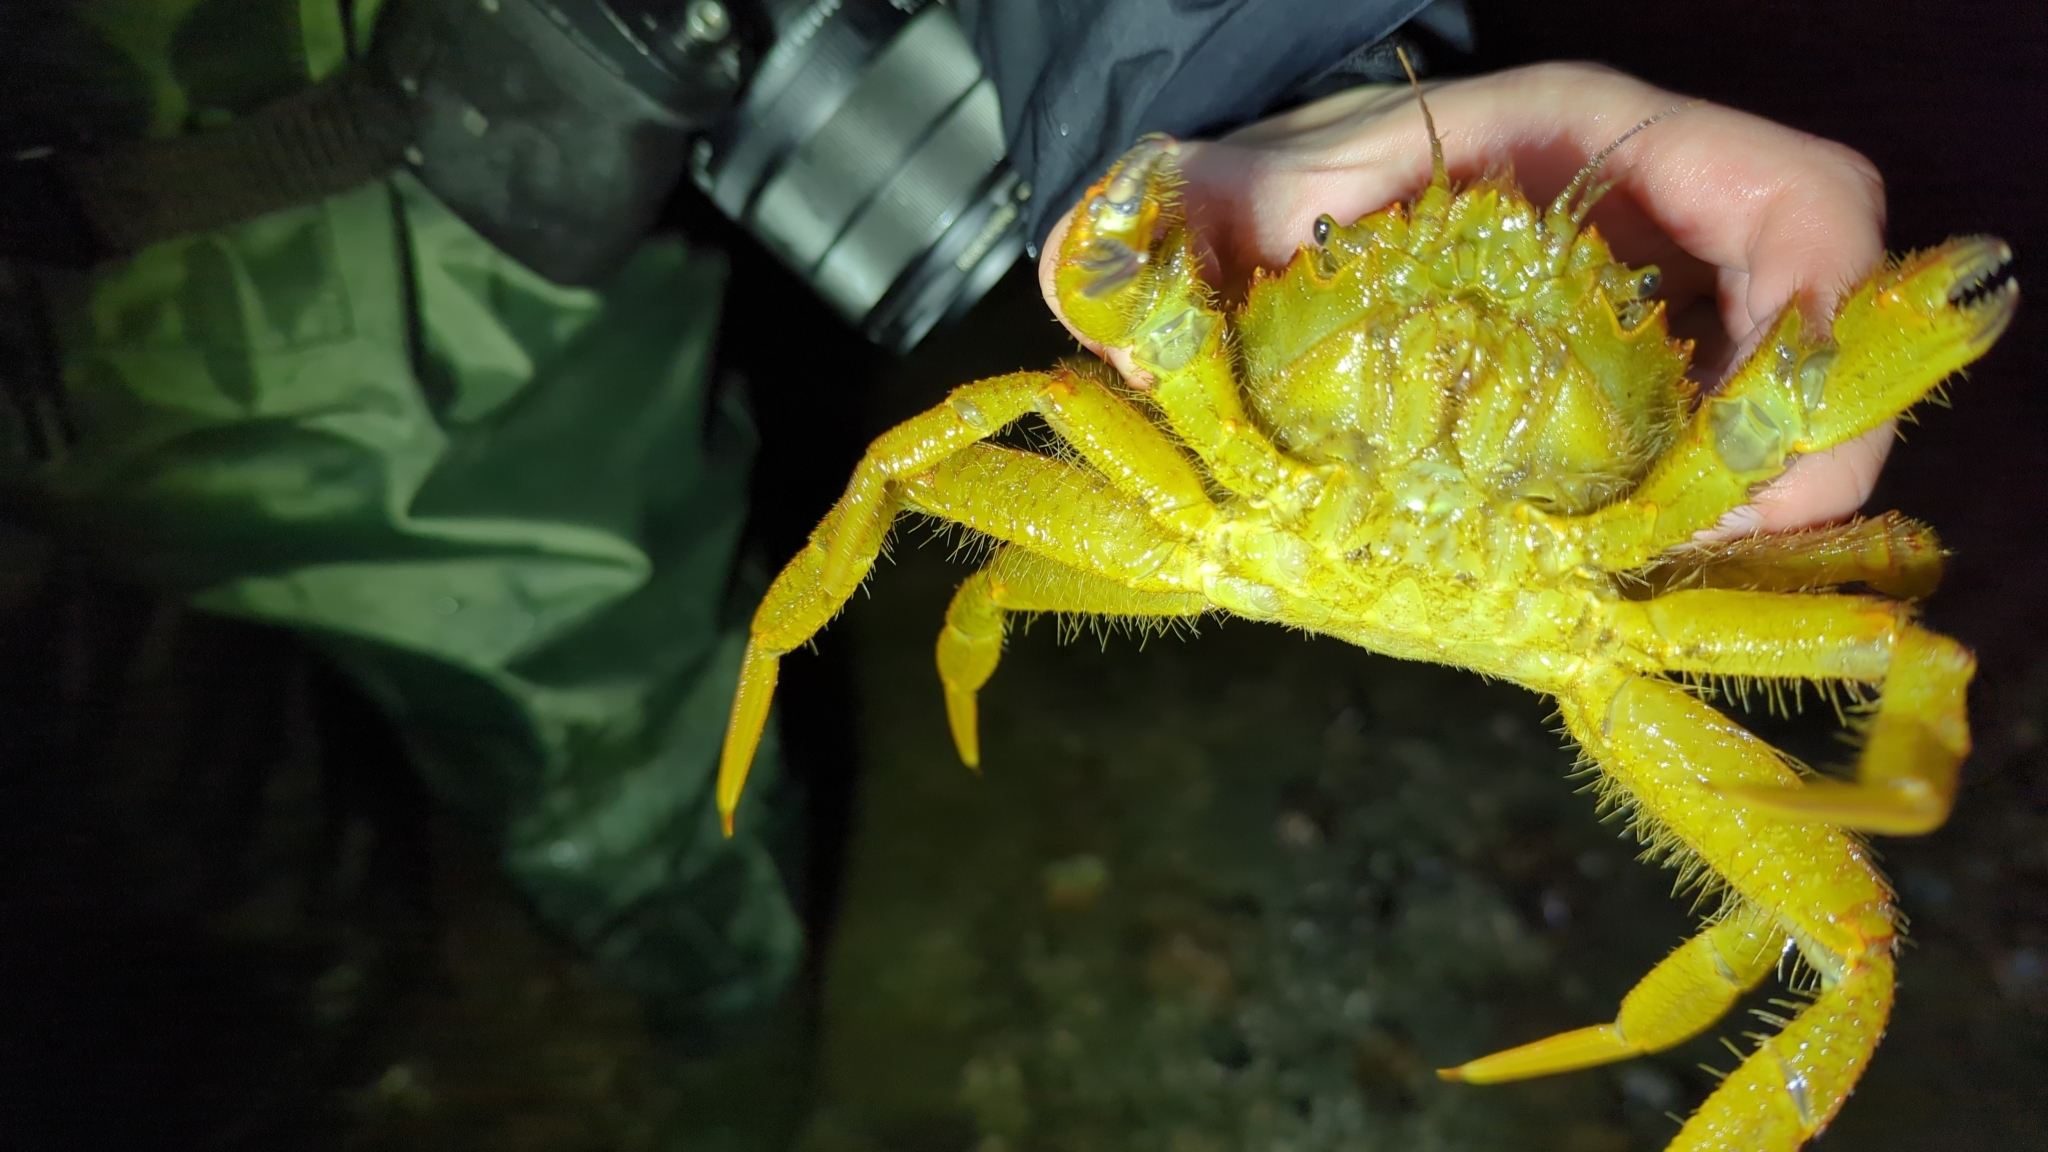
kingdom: Animalia
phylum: Arthropoda
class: Malacostraca
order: Decapoda
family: Cheiragonidae
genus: Telmessus
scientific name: Telmessus cheiragonus
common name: Helmet crab
